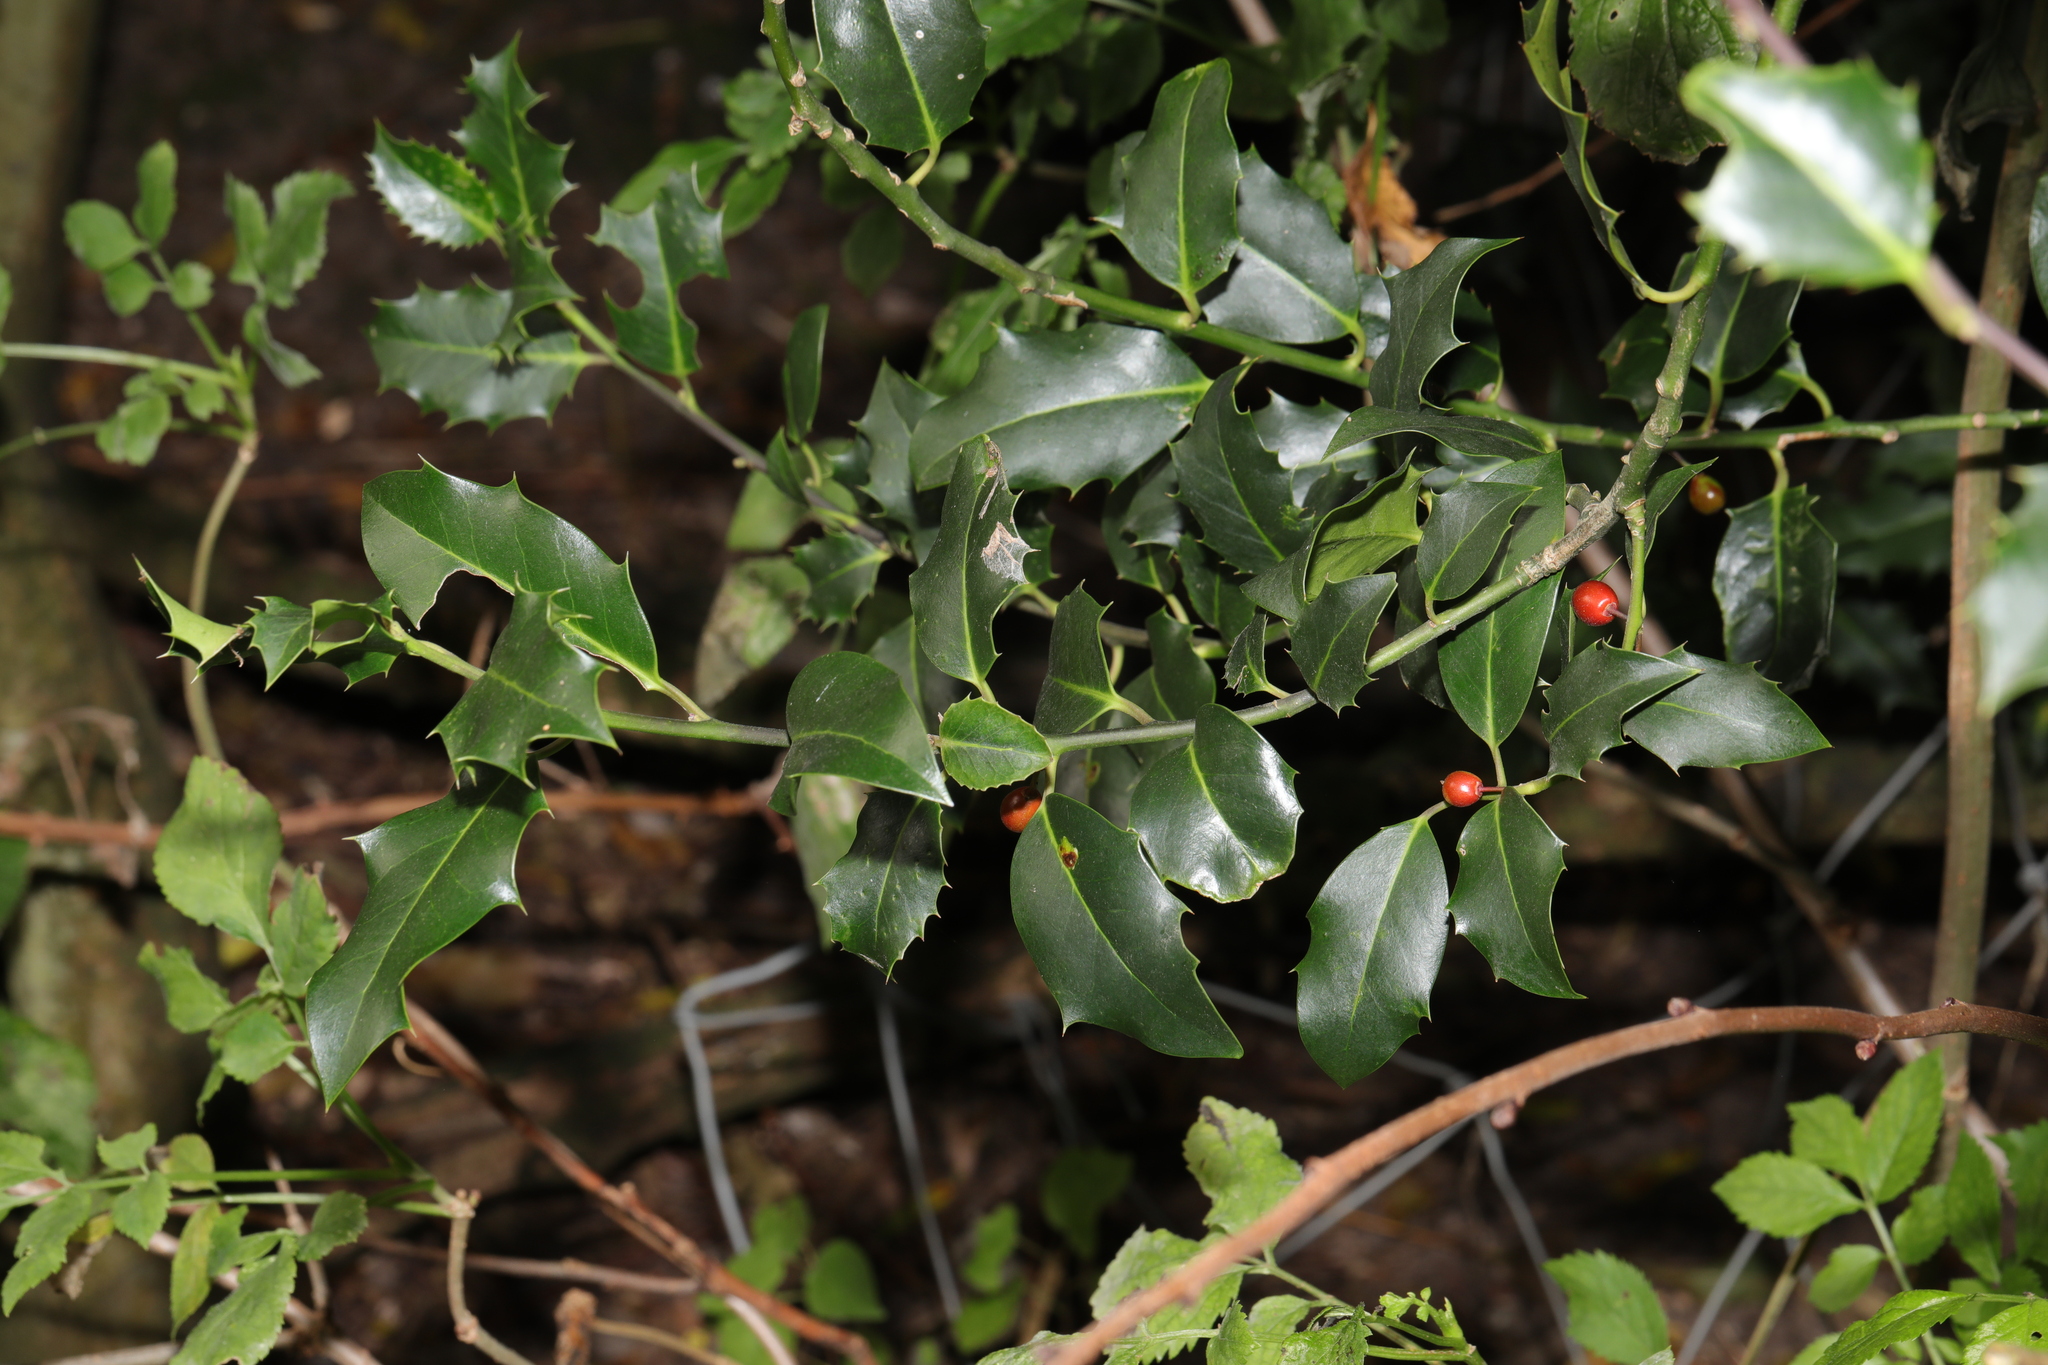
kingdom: Plantae
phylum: Tracheophyta
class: Magnoliopsida
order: Aquifoliales
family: Aquifoliaceae
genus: Ilex
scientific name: Ilex aquifolium
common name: English holly
